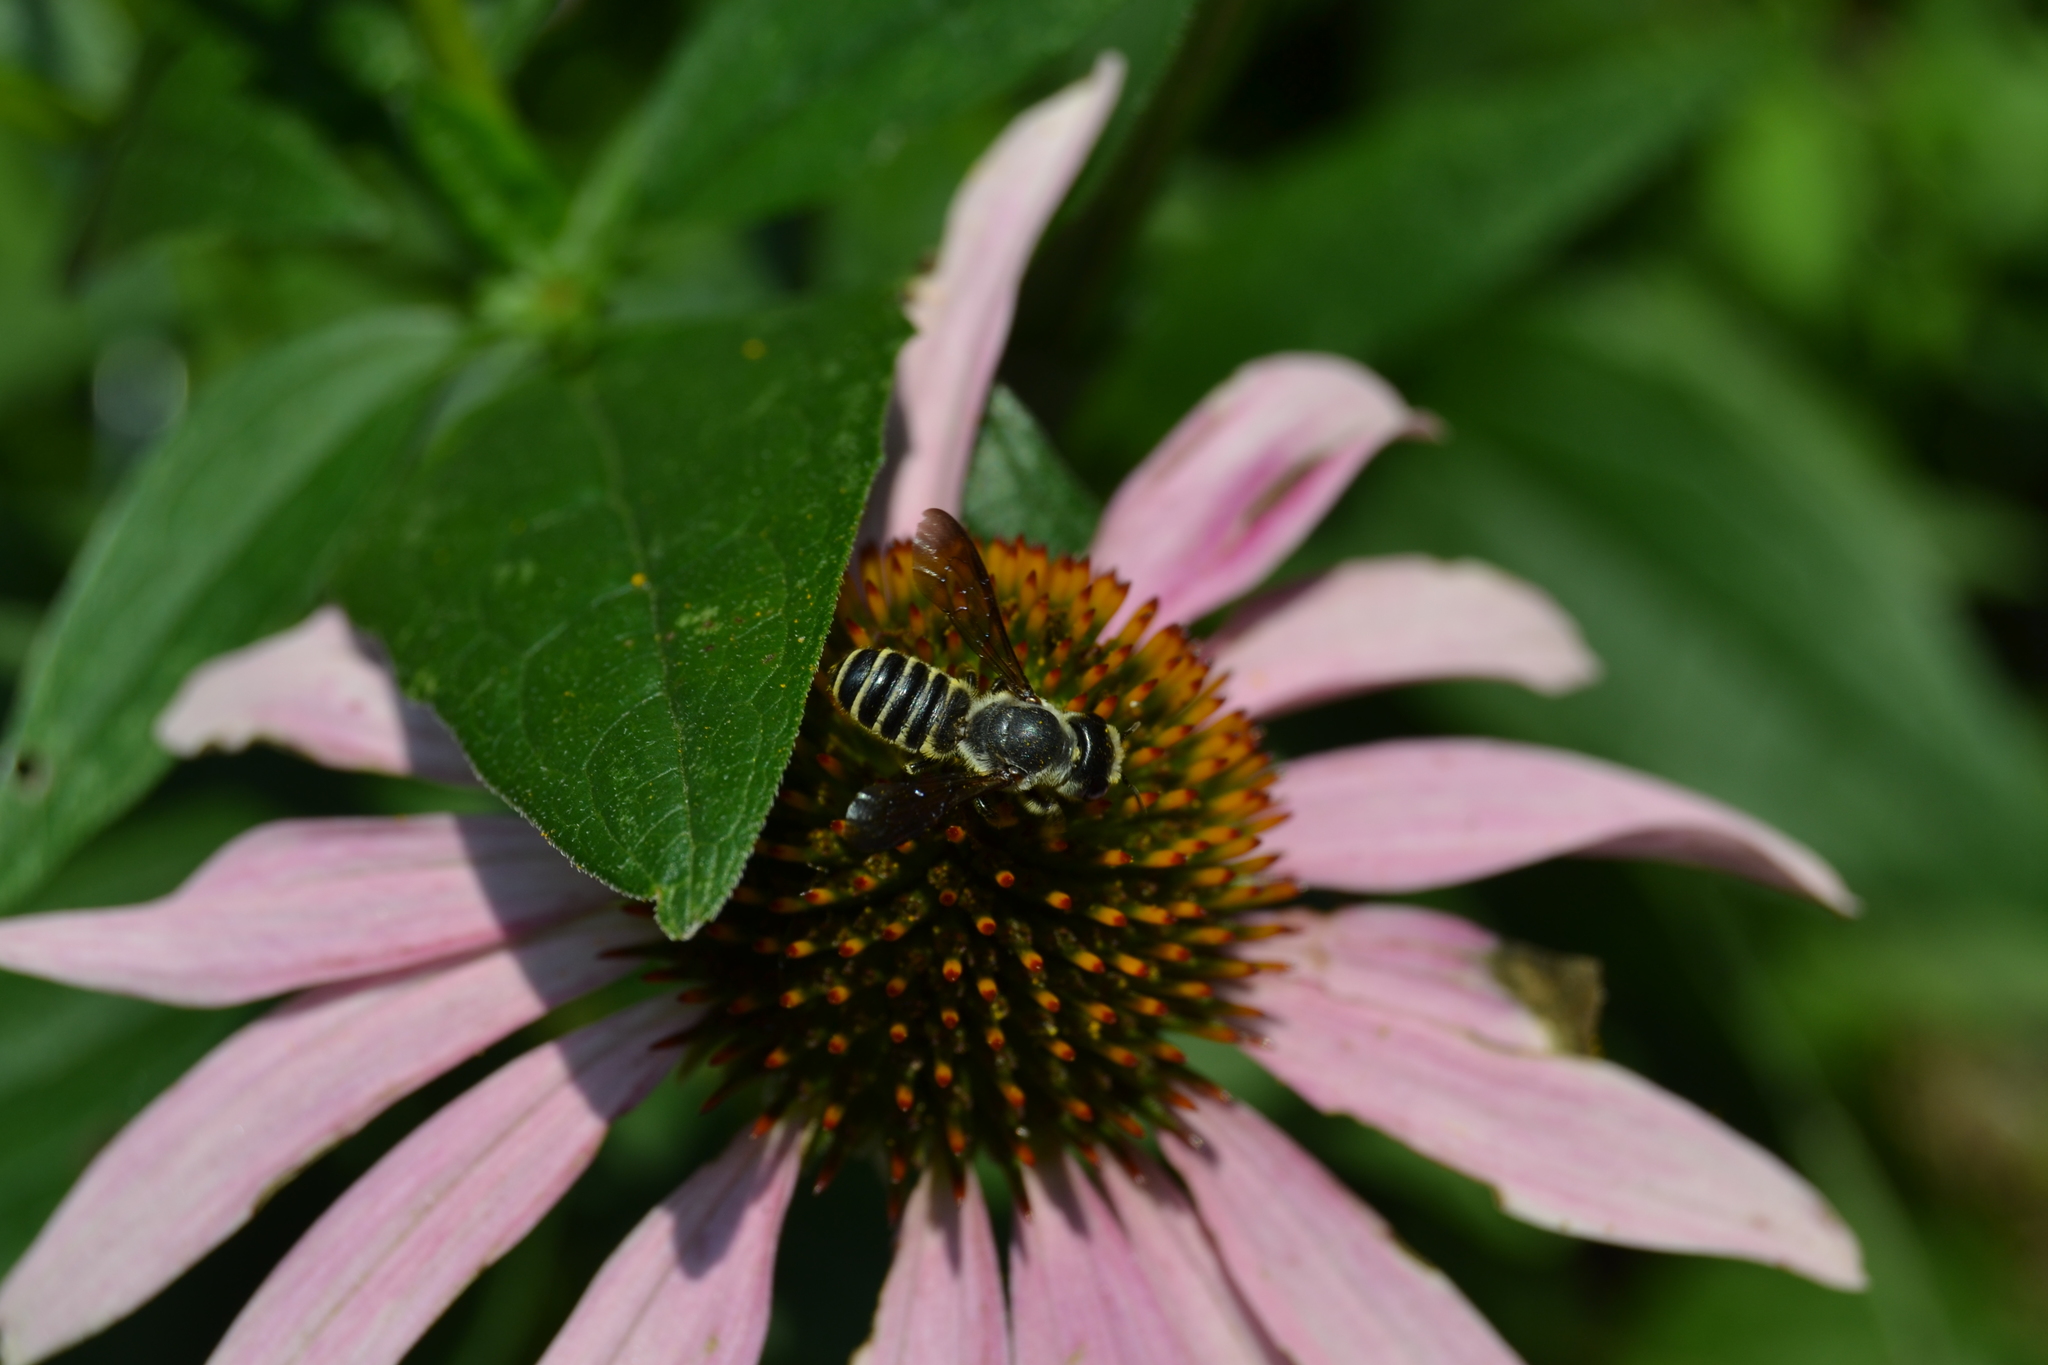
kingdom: Animalia
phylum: Arthropoda
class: Insecta
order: Hymenoptera
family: Megachilidae
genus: Megachile
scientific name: Megachile pugnata
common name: Pugnacious leafcutter bee
